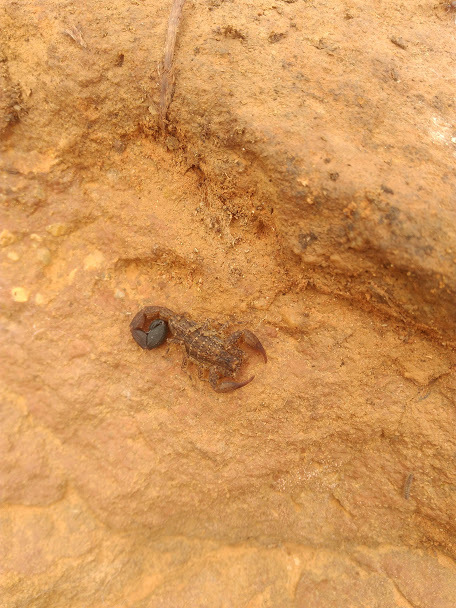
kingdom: Animalia
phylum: Arthropoda
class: Arachnida
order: Scorpiones
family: Buthidae
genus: Tityus
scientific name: Tityus columbianus
